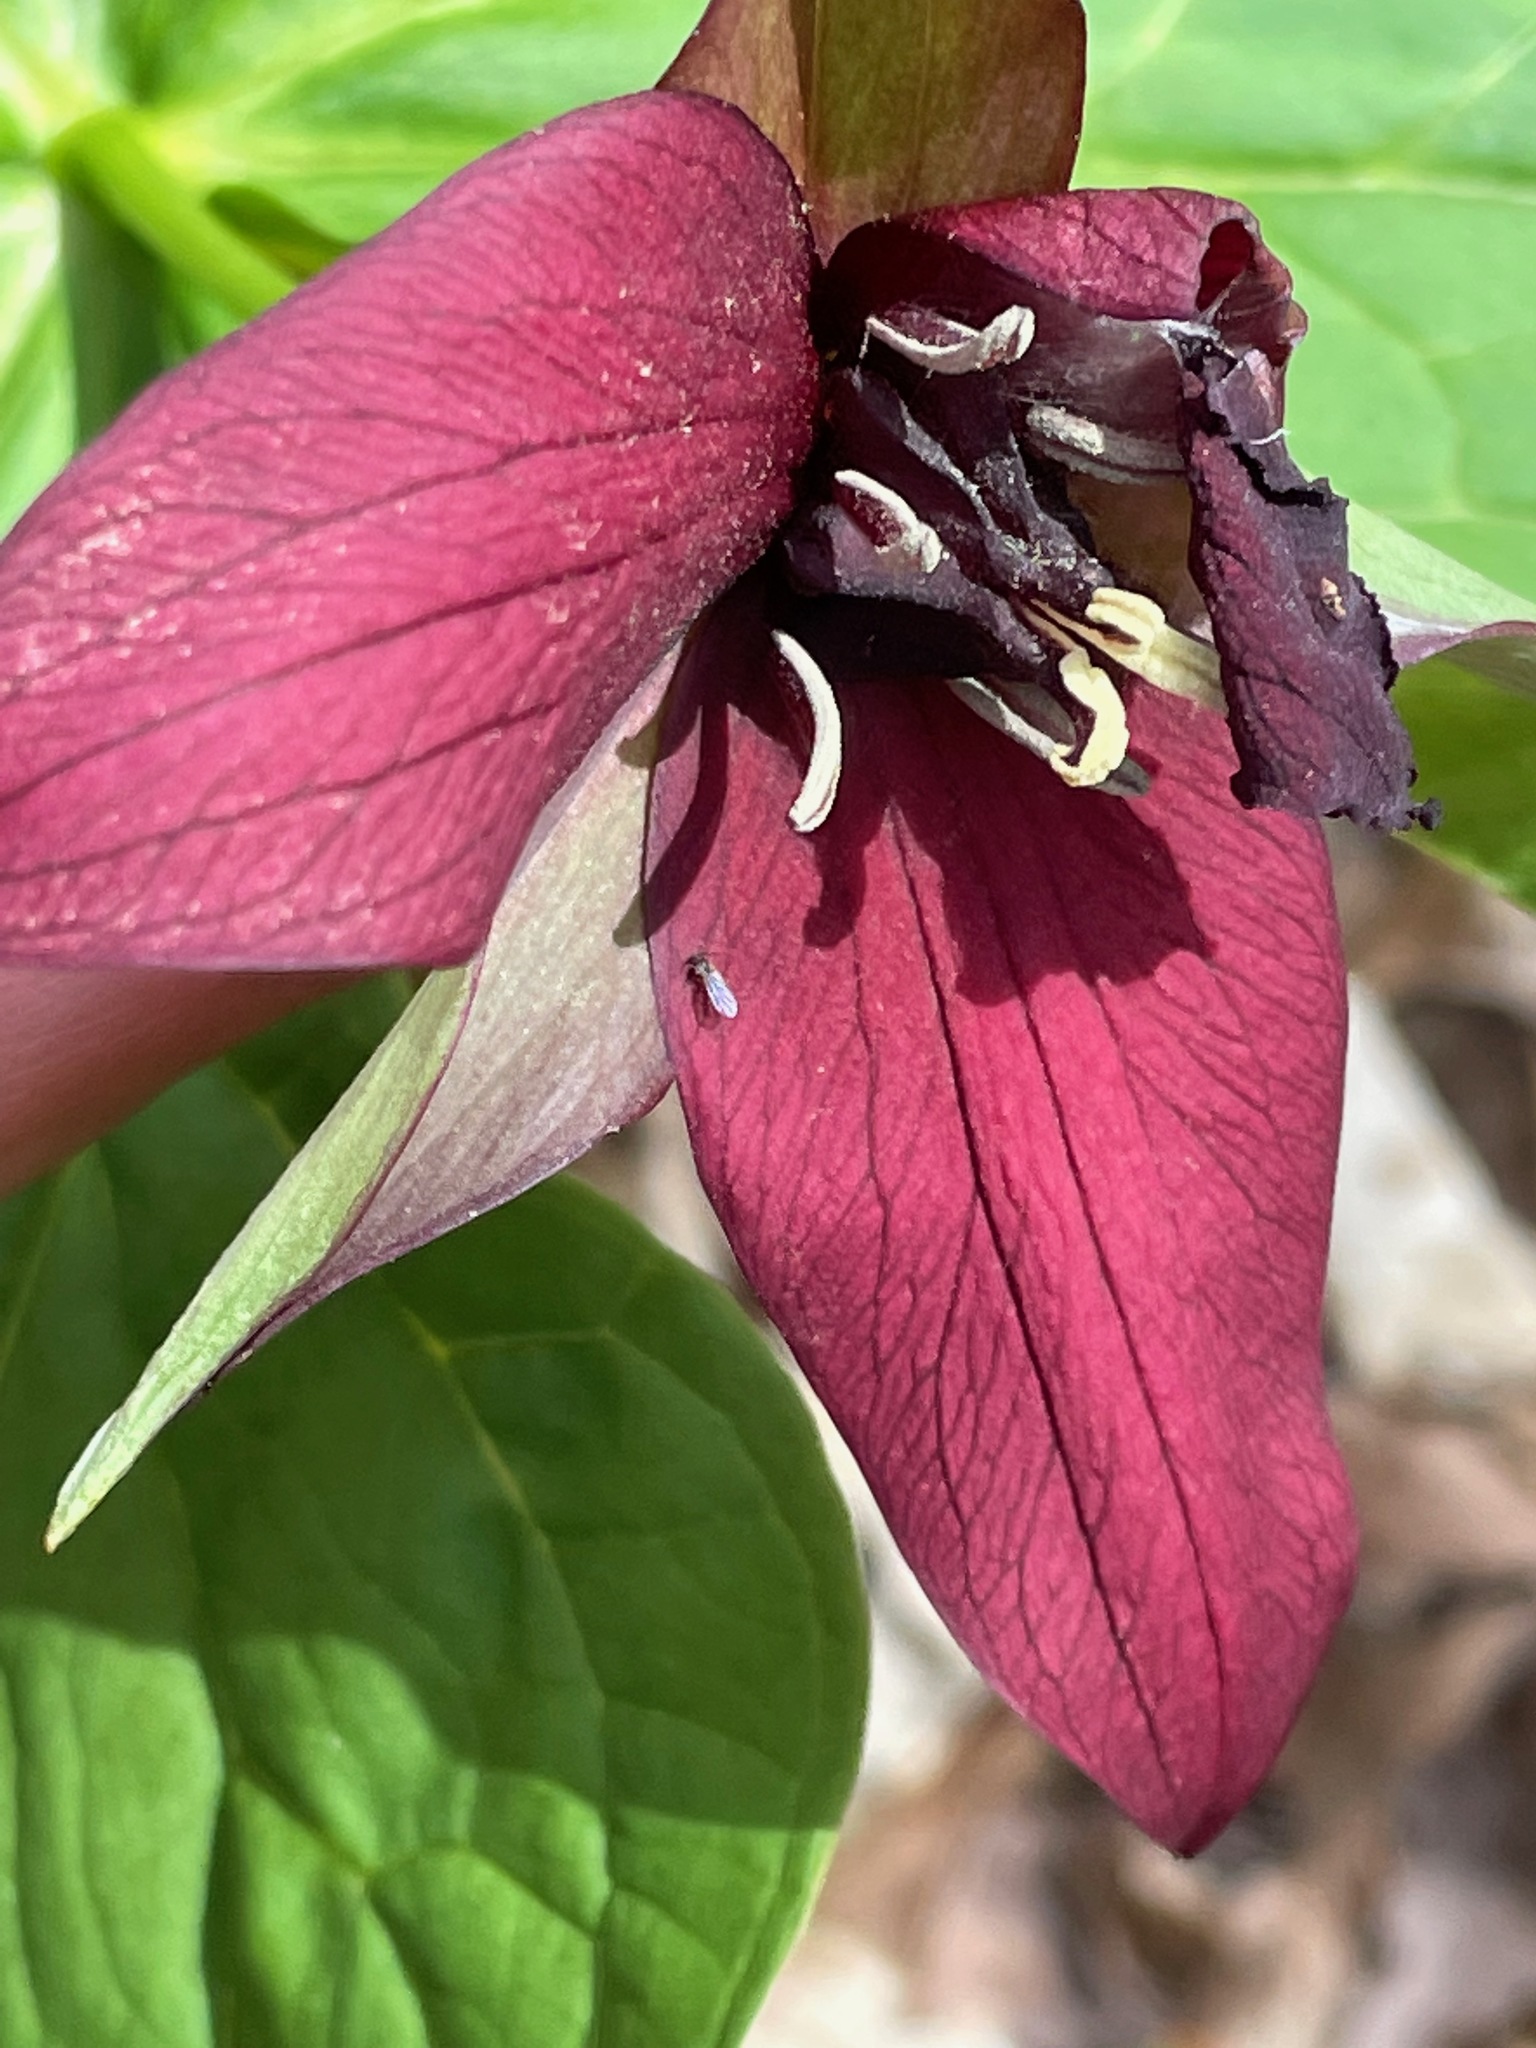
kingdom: Plantae
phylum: Tracheophyta
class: Liliopsida
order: Liliales
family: Melanthiaceae
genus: Trillium
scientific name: Trillium erectum
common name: Purple trillium
